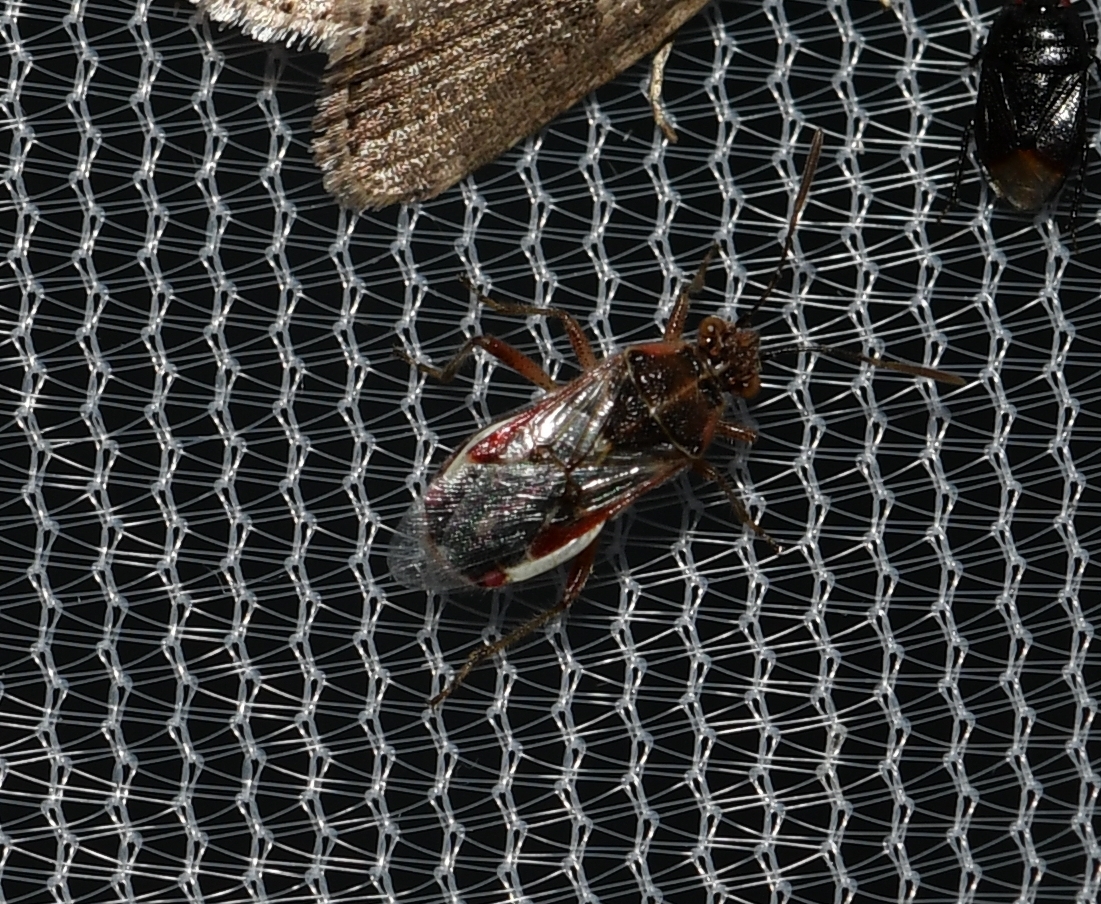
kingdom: Animalia
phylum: Arthropoda
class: Insecta
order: Hemiptera
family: Rhopalidae
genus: Liorhyssus
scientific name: Liorhyssus hyalinus
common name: Scentless plant bug
